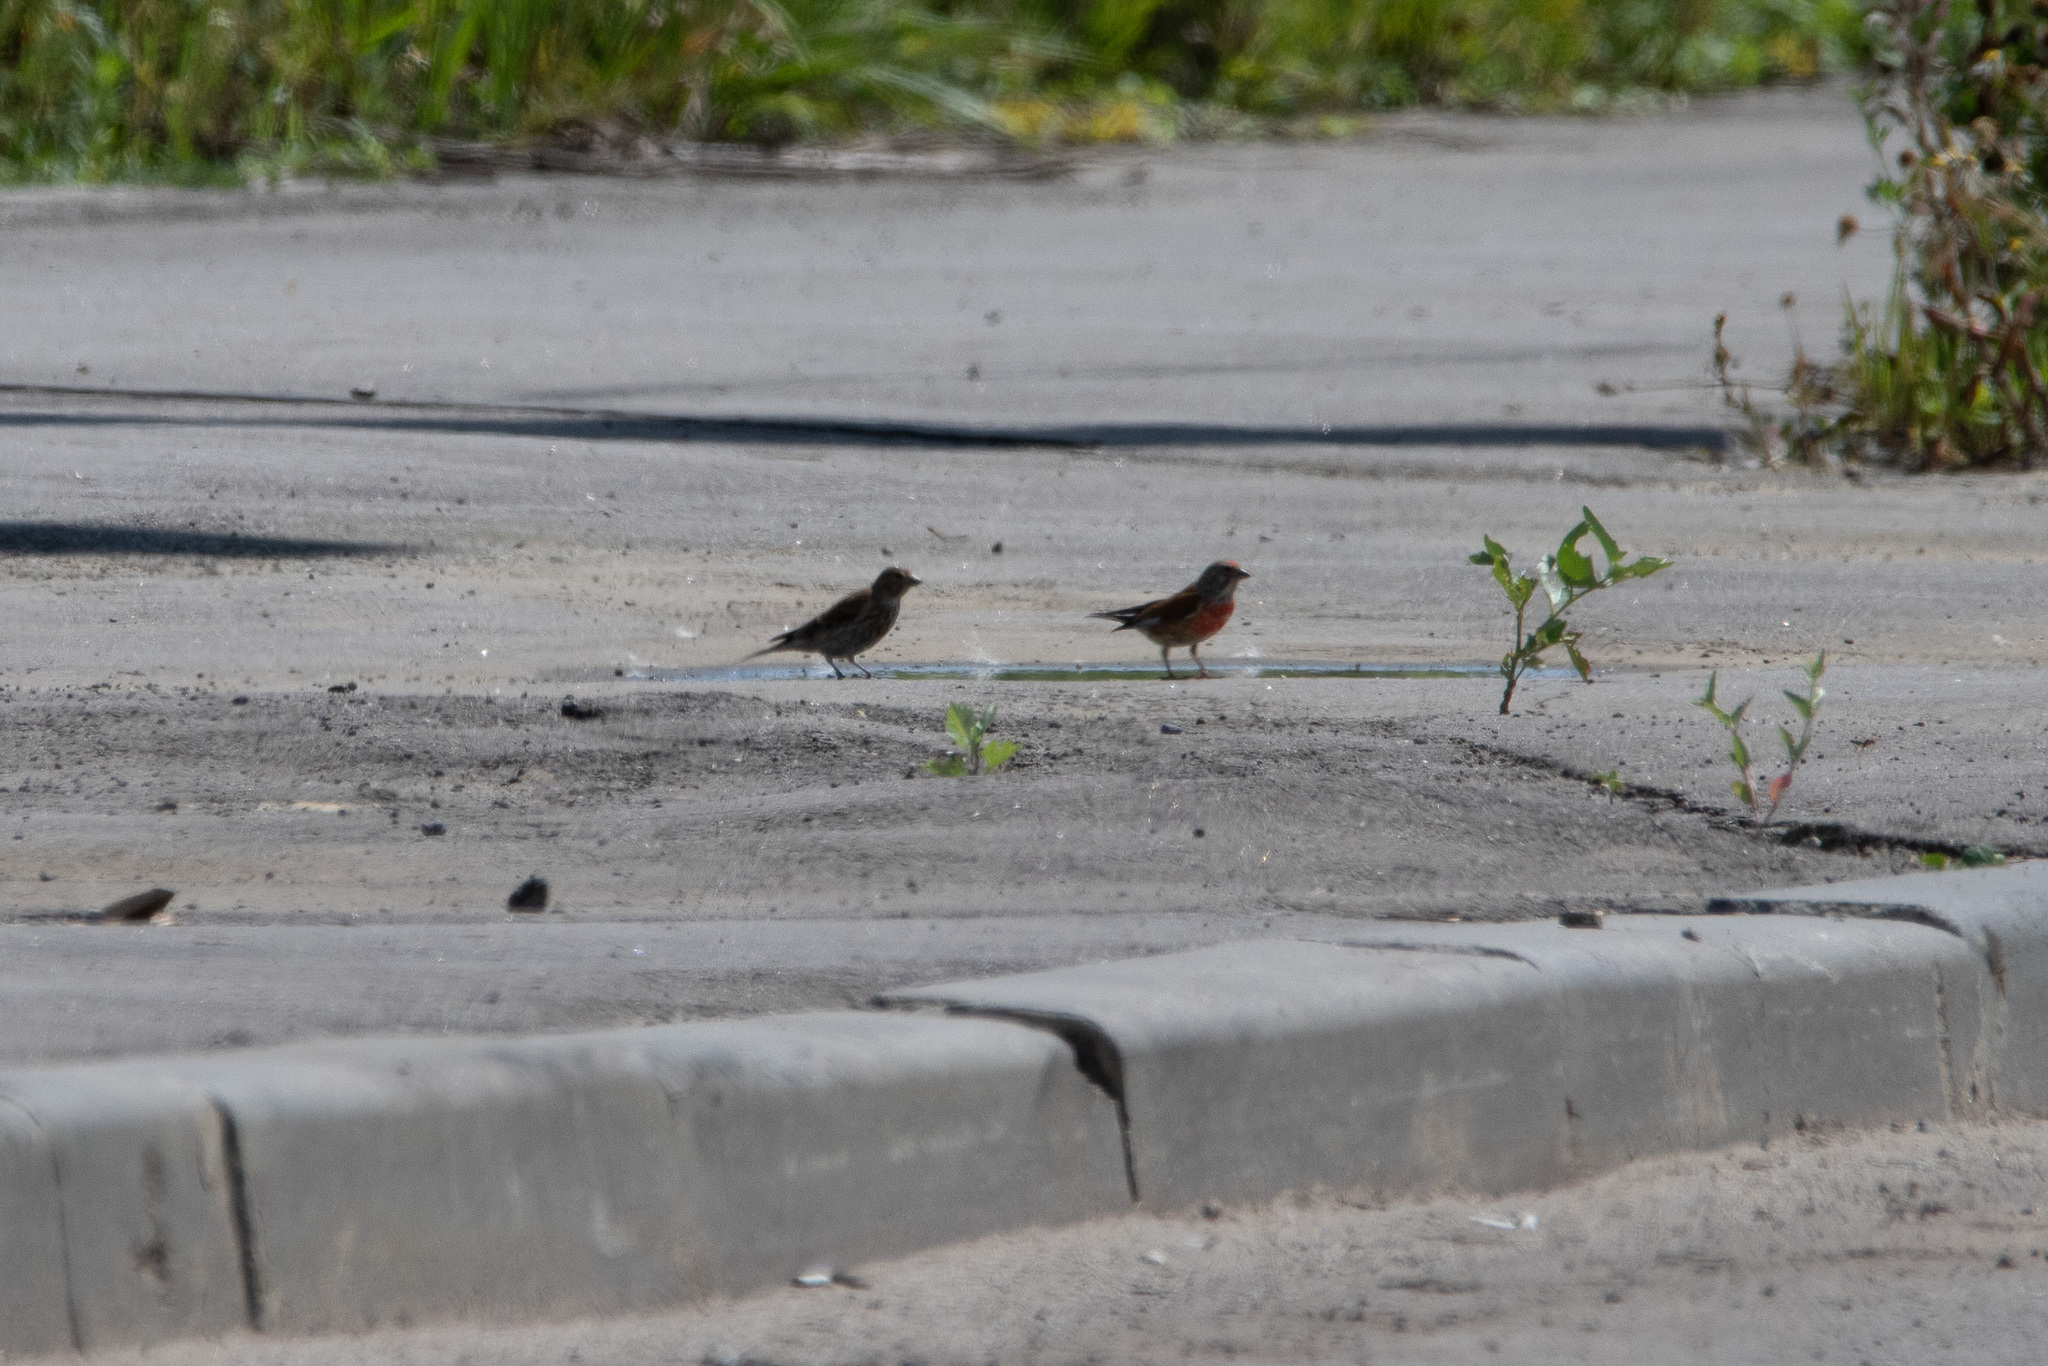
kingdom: Animalia
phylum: Chordata
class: Aves
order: Passeriformes
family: Fringillidae
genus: Linaria
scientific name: Linaria cannabina
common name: Common linnet
